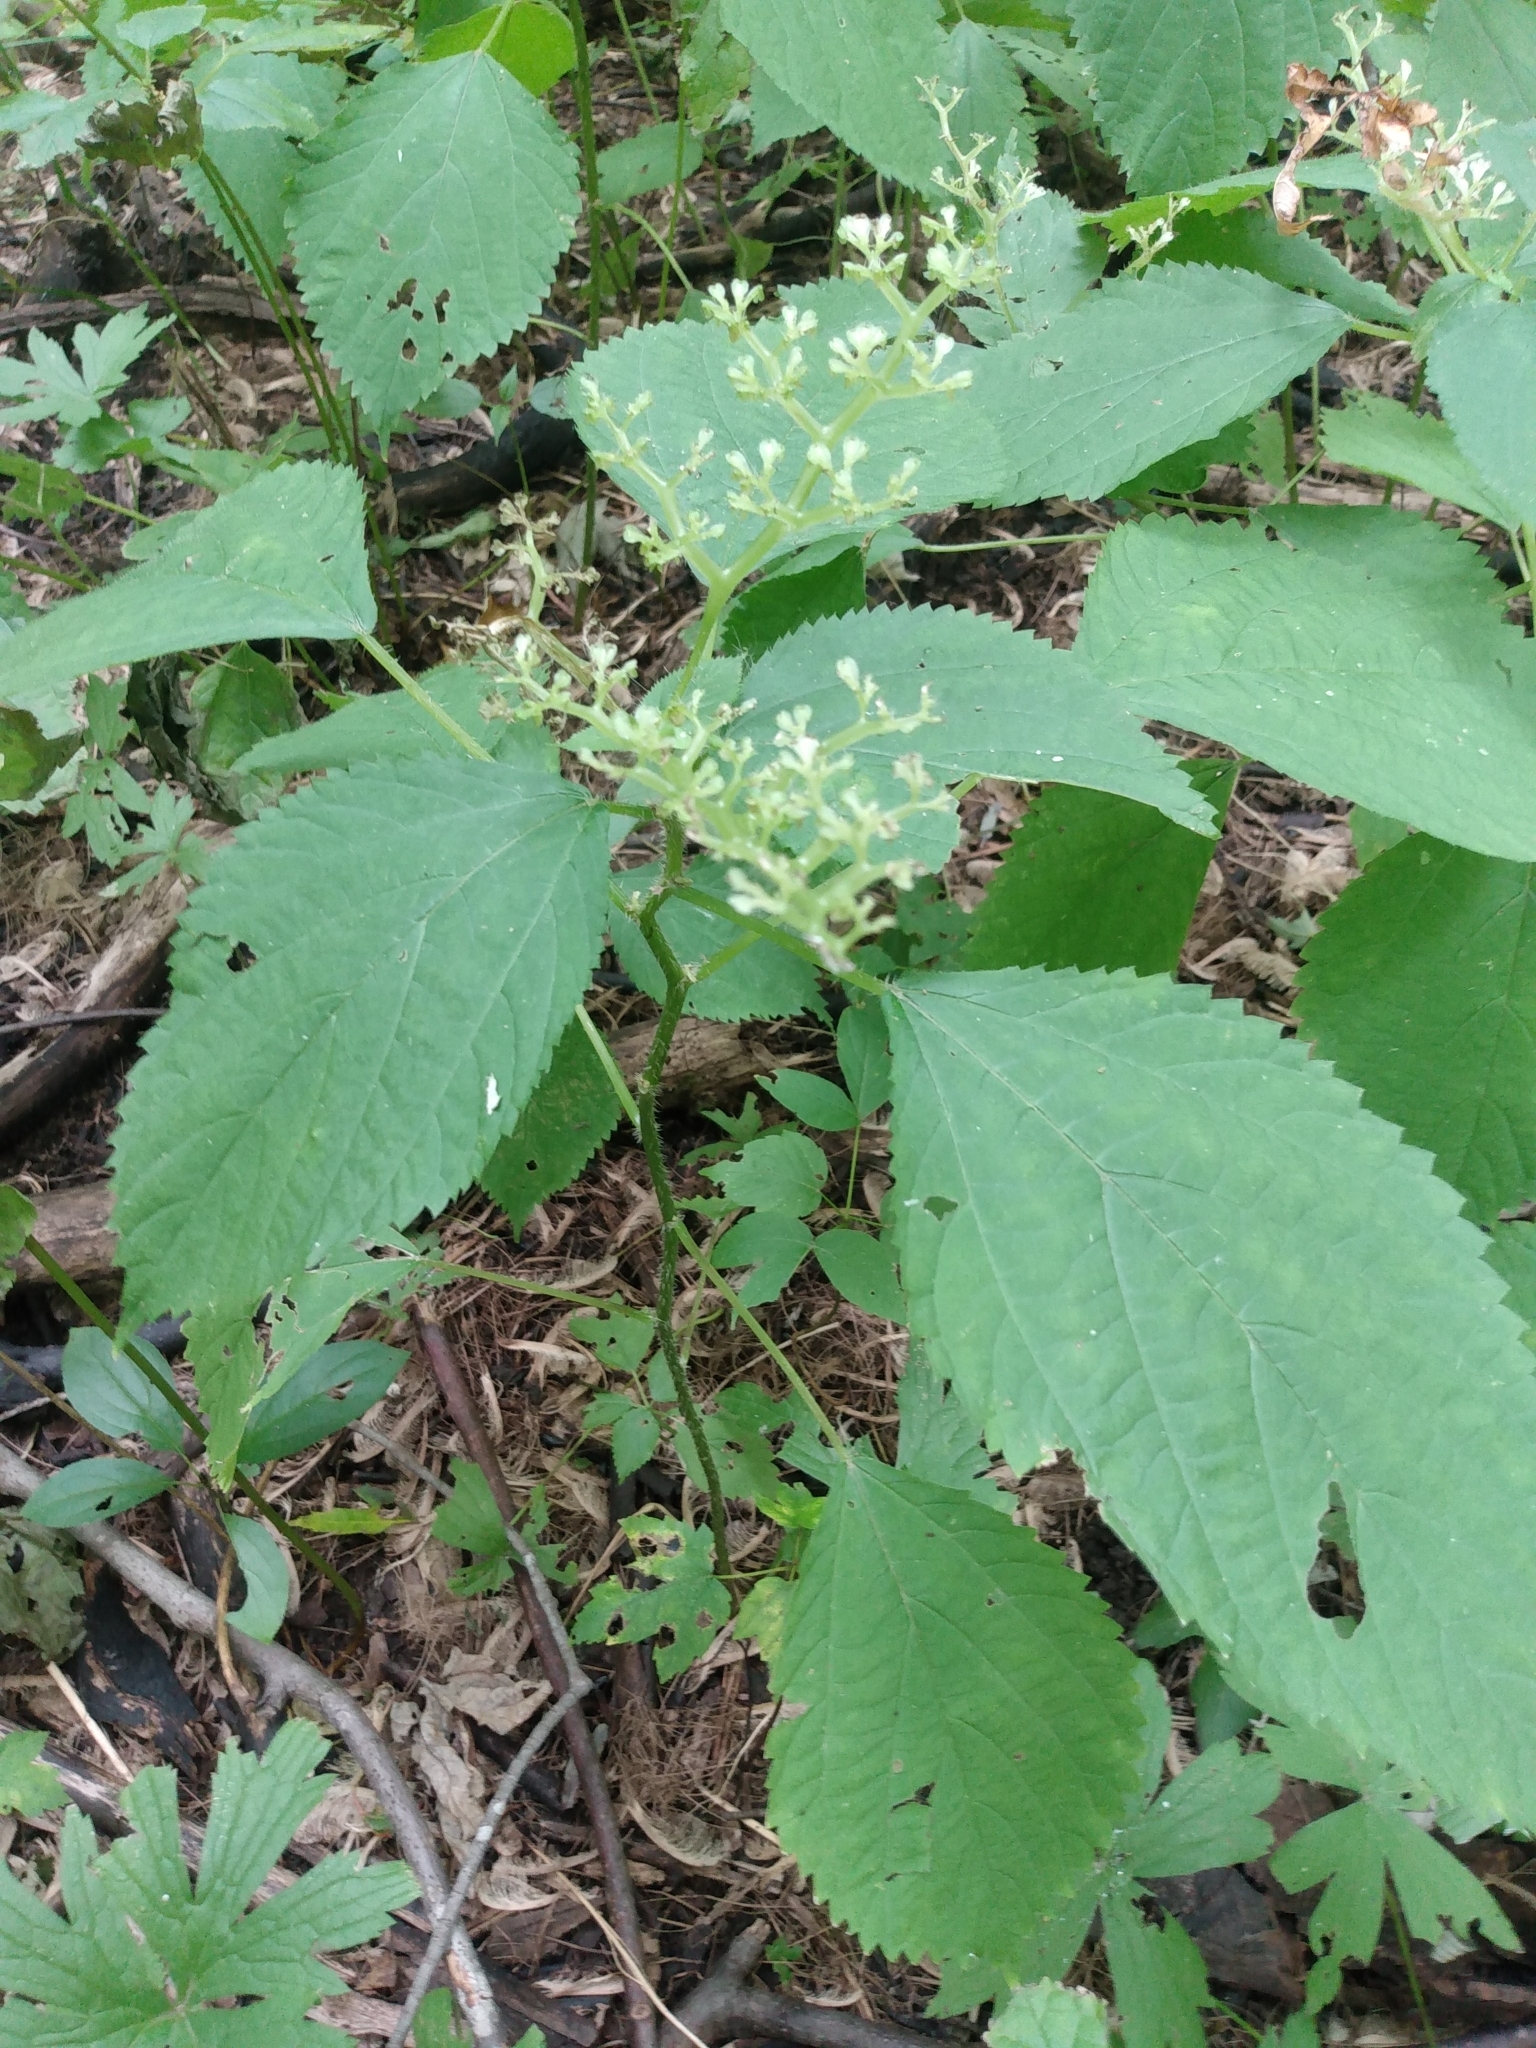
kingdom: Plantae
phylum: Tracheophyta
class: Magnoliopsida
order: Rosales
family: Urticaceae
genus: Laportea
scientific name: Laportea canadensis
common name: Canada nettle
